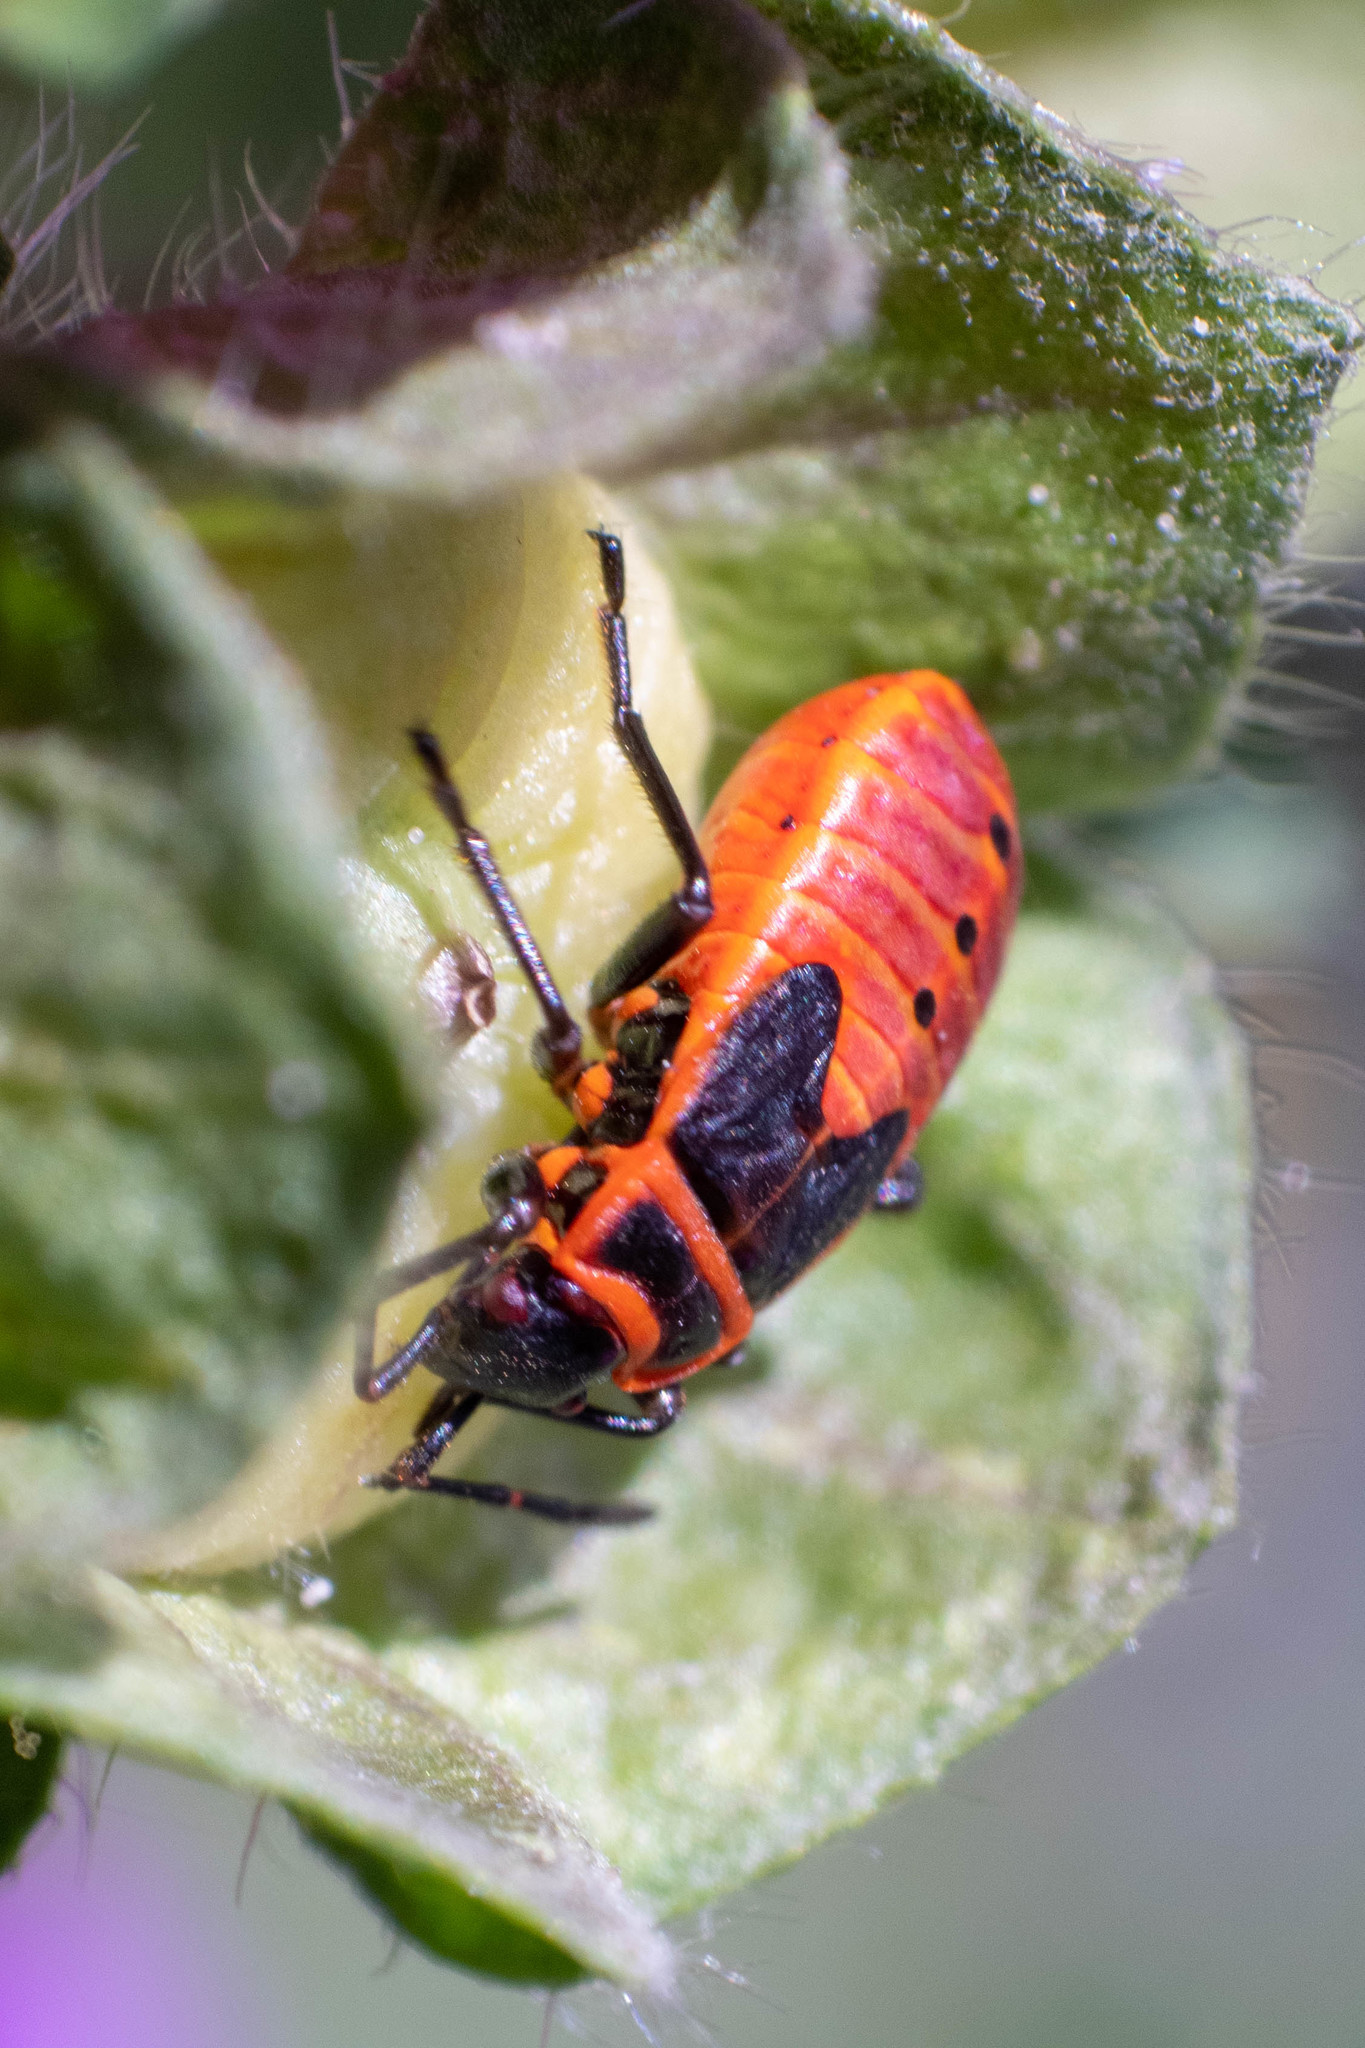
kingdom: Animalia
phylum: Arthropoda
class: Insecta
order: Hemiptera
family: Pyrrhocoridae
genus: Pyrrhocoris
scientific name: Pyrrhocoris apterus
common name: Firebug
